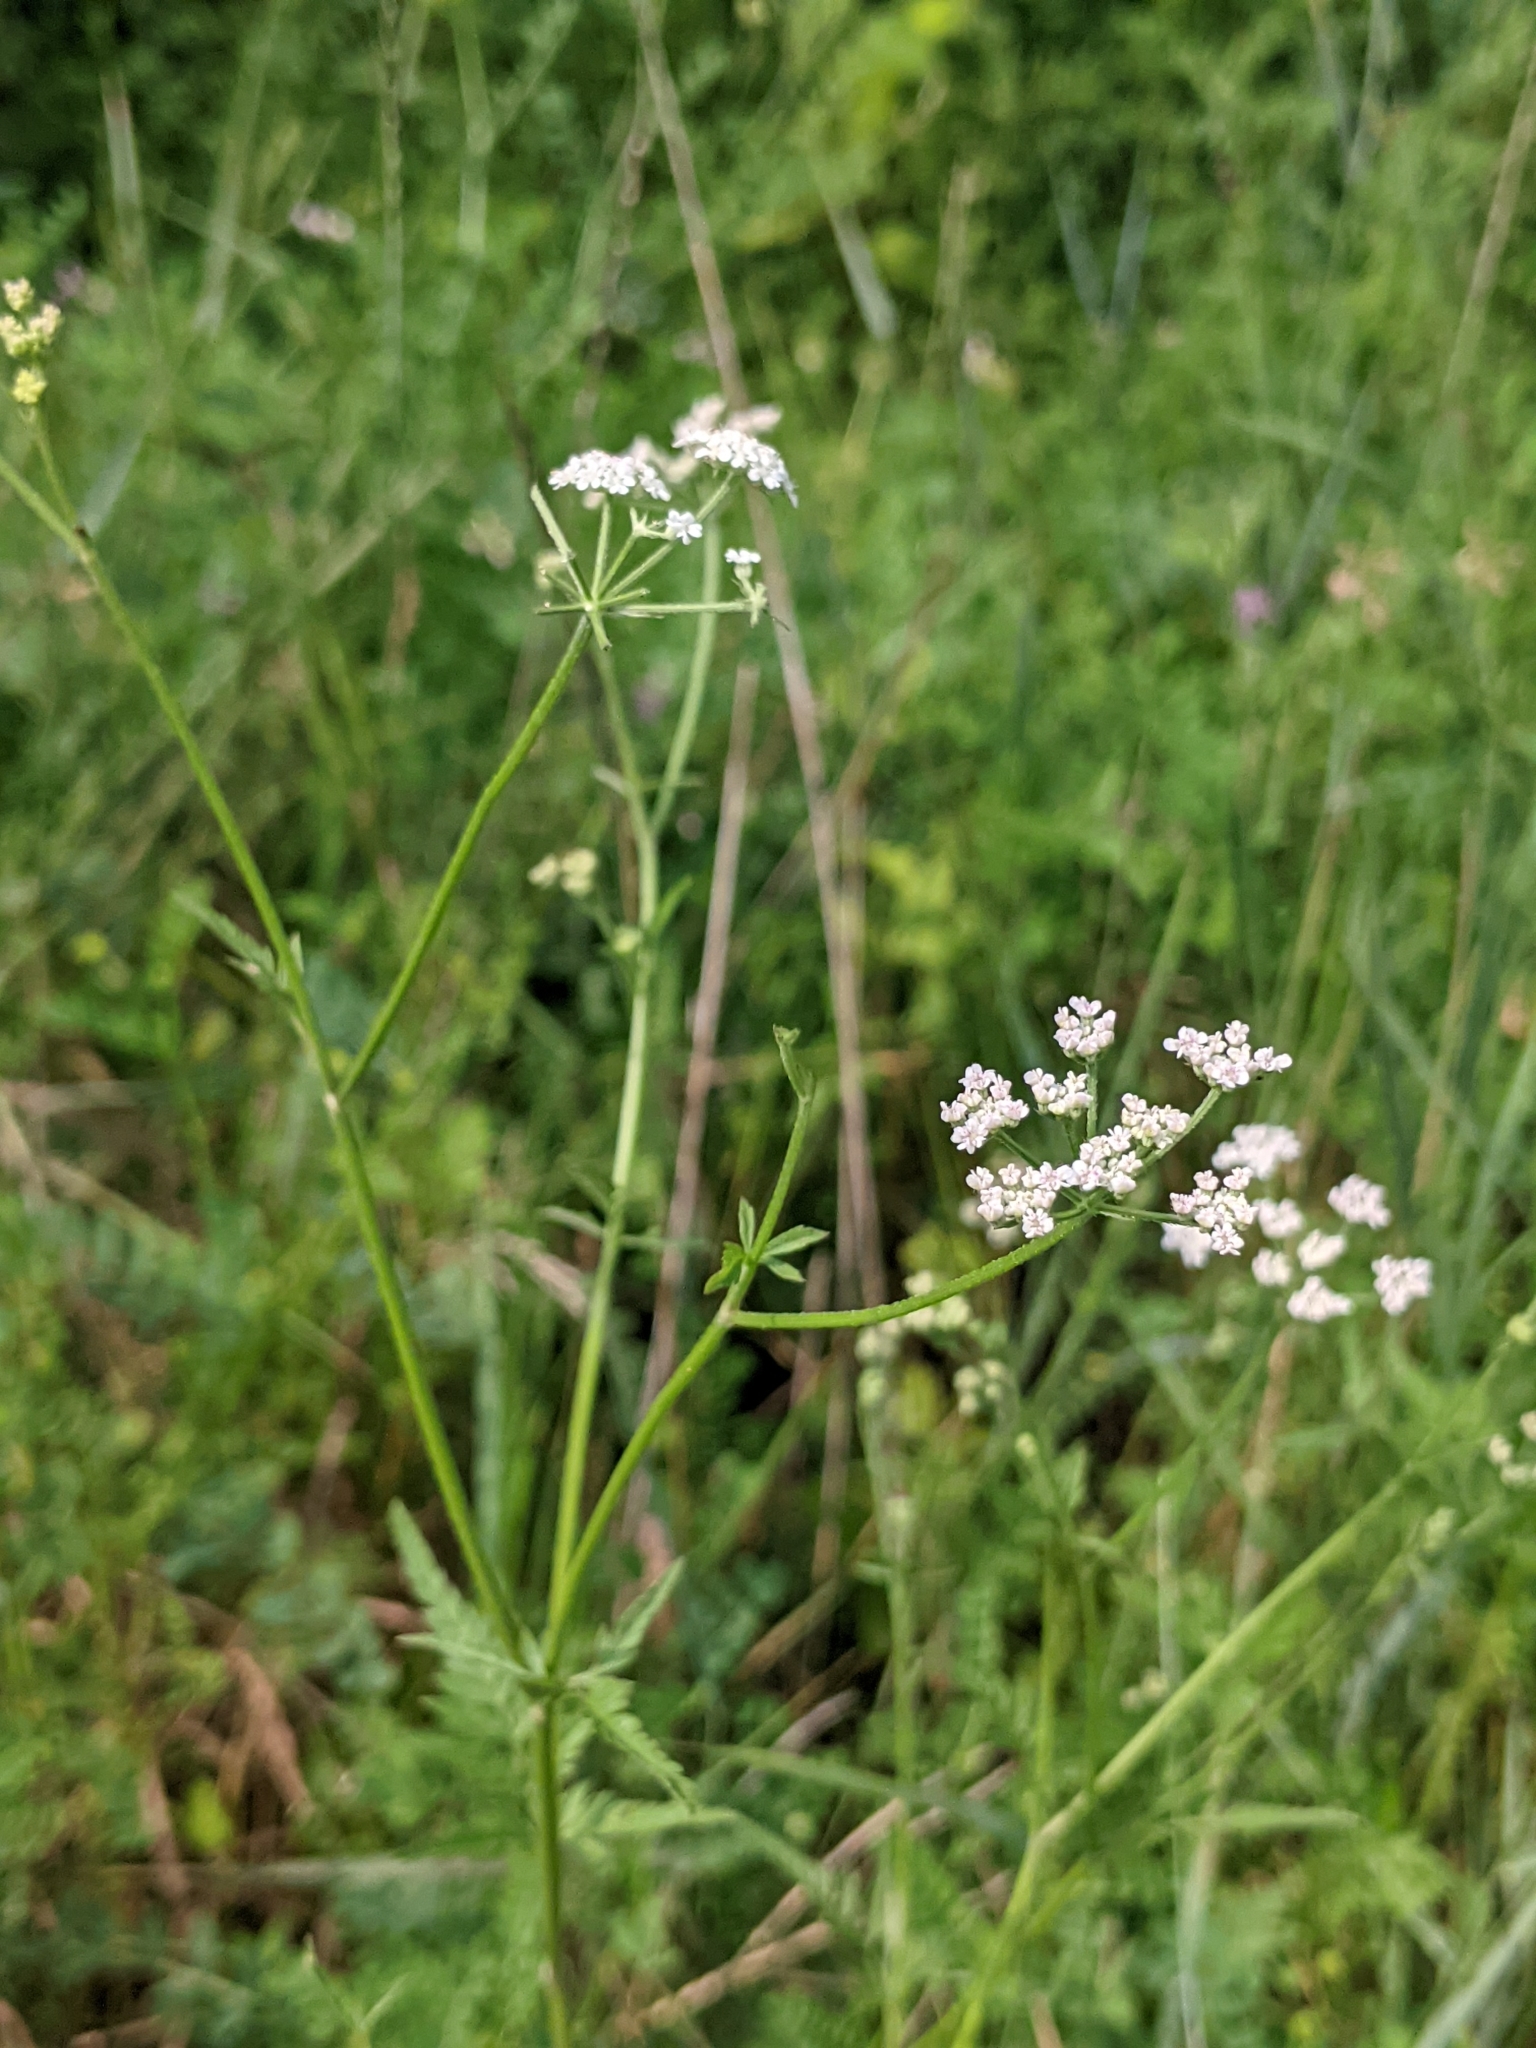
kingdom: Plantae
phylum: Tracheophyta
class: Magnoliopsida
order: Apiales
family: Apiaceae
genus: Torilis
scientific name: Torilis japonica
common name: Upright hedge-parsley
